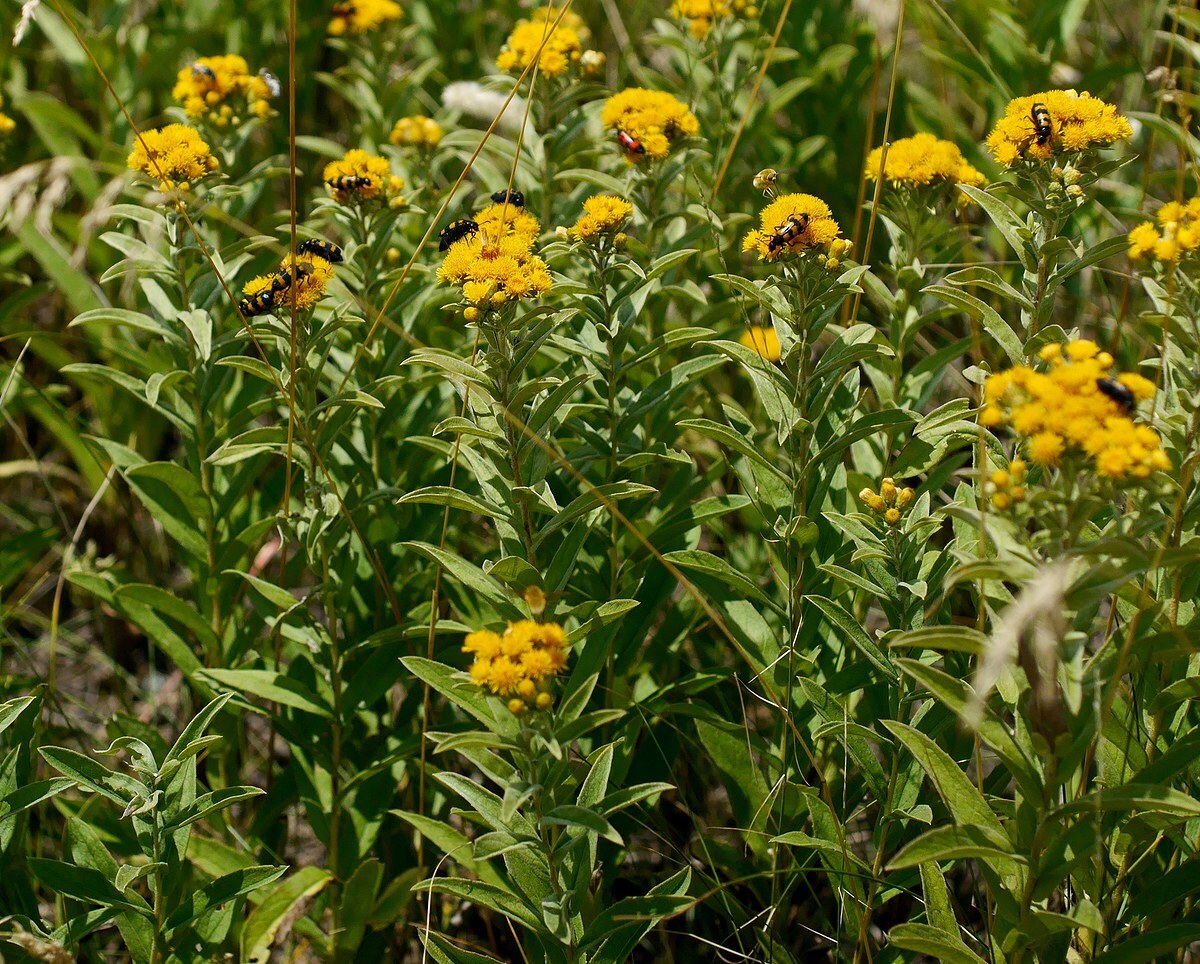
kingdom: Plantae
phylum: Tracheophyta
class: Magnoliopsida
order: Asterales
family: Asteraceae
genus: Pentanema
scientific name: Pentanema germanicum
